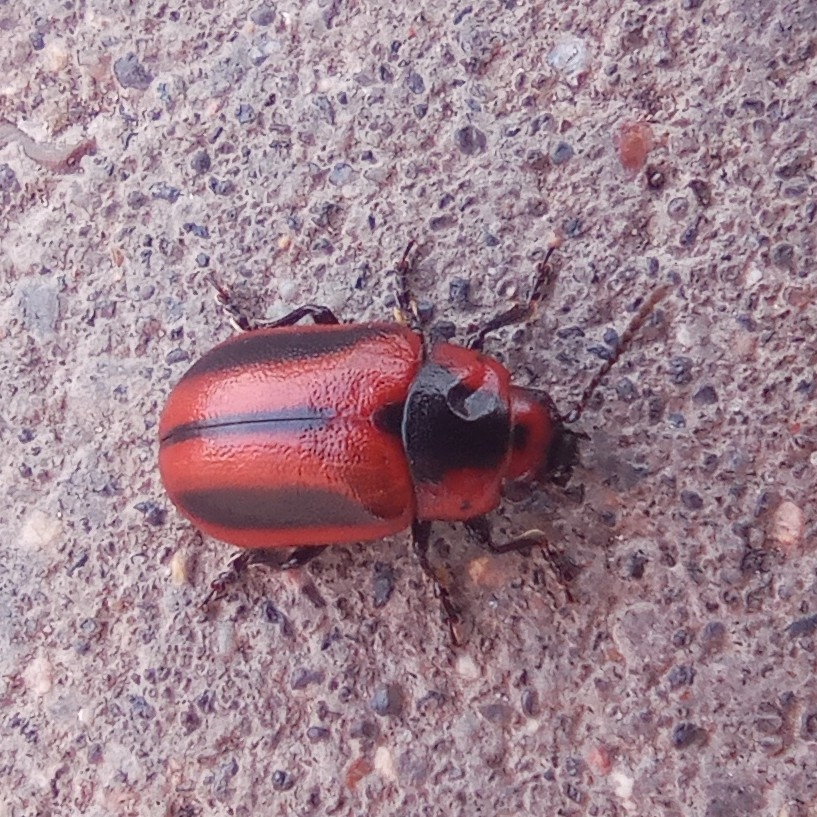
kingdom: Animalia
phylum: Arthropoda
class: Insecta
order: Coleoptera
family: Chrysomelidae
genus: Entomoscelis
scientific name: Entomoscelis adonidis
